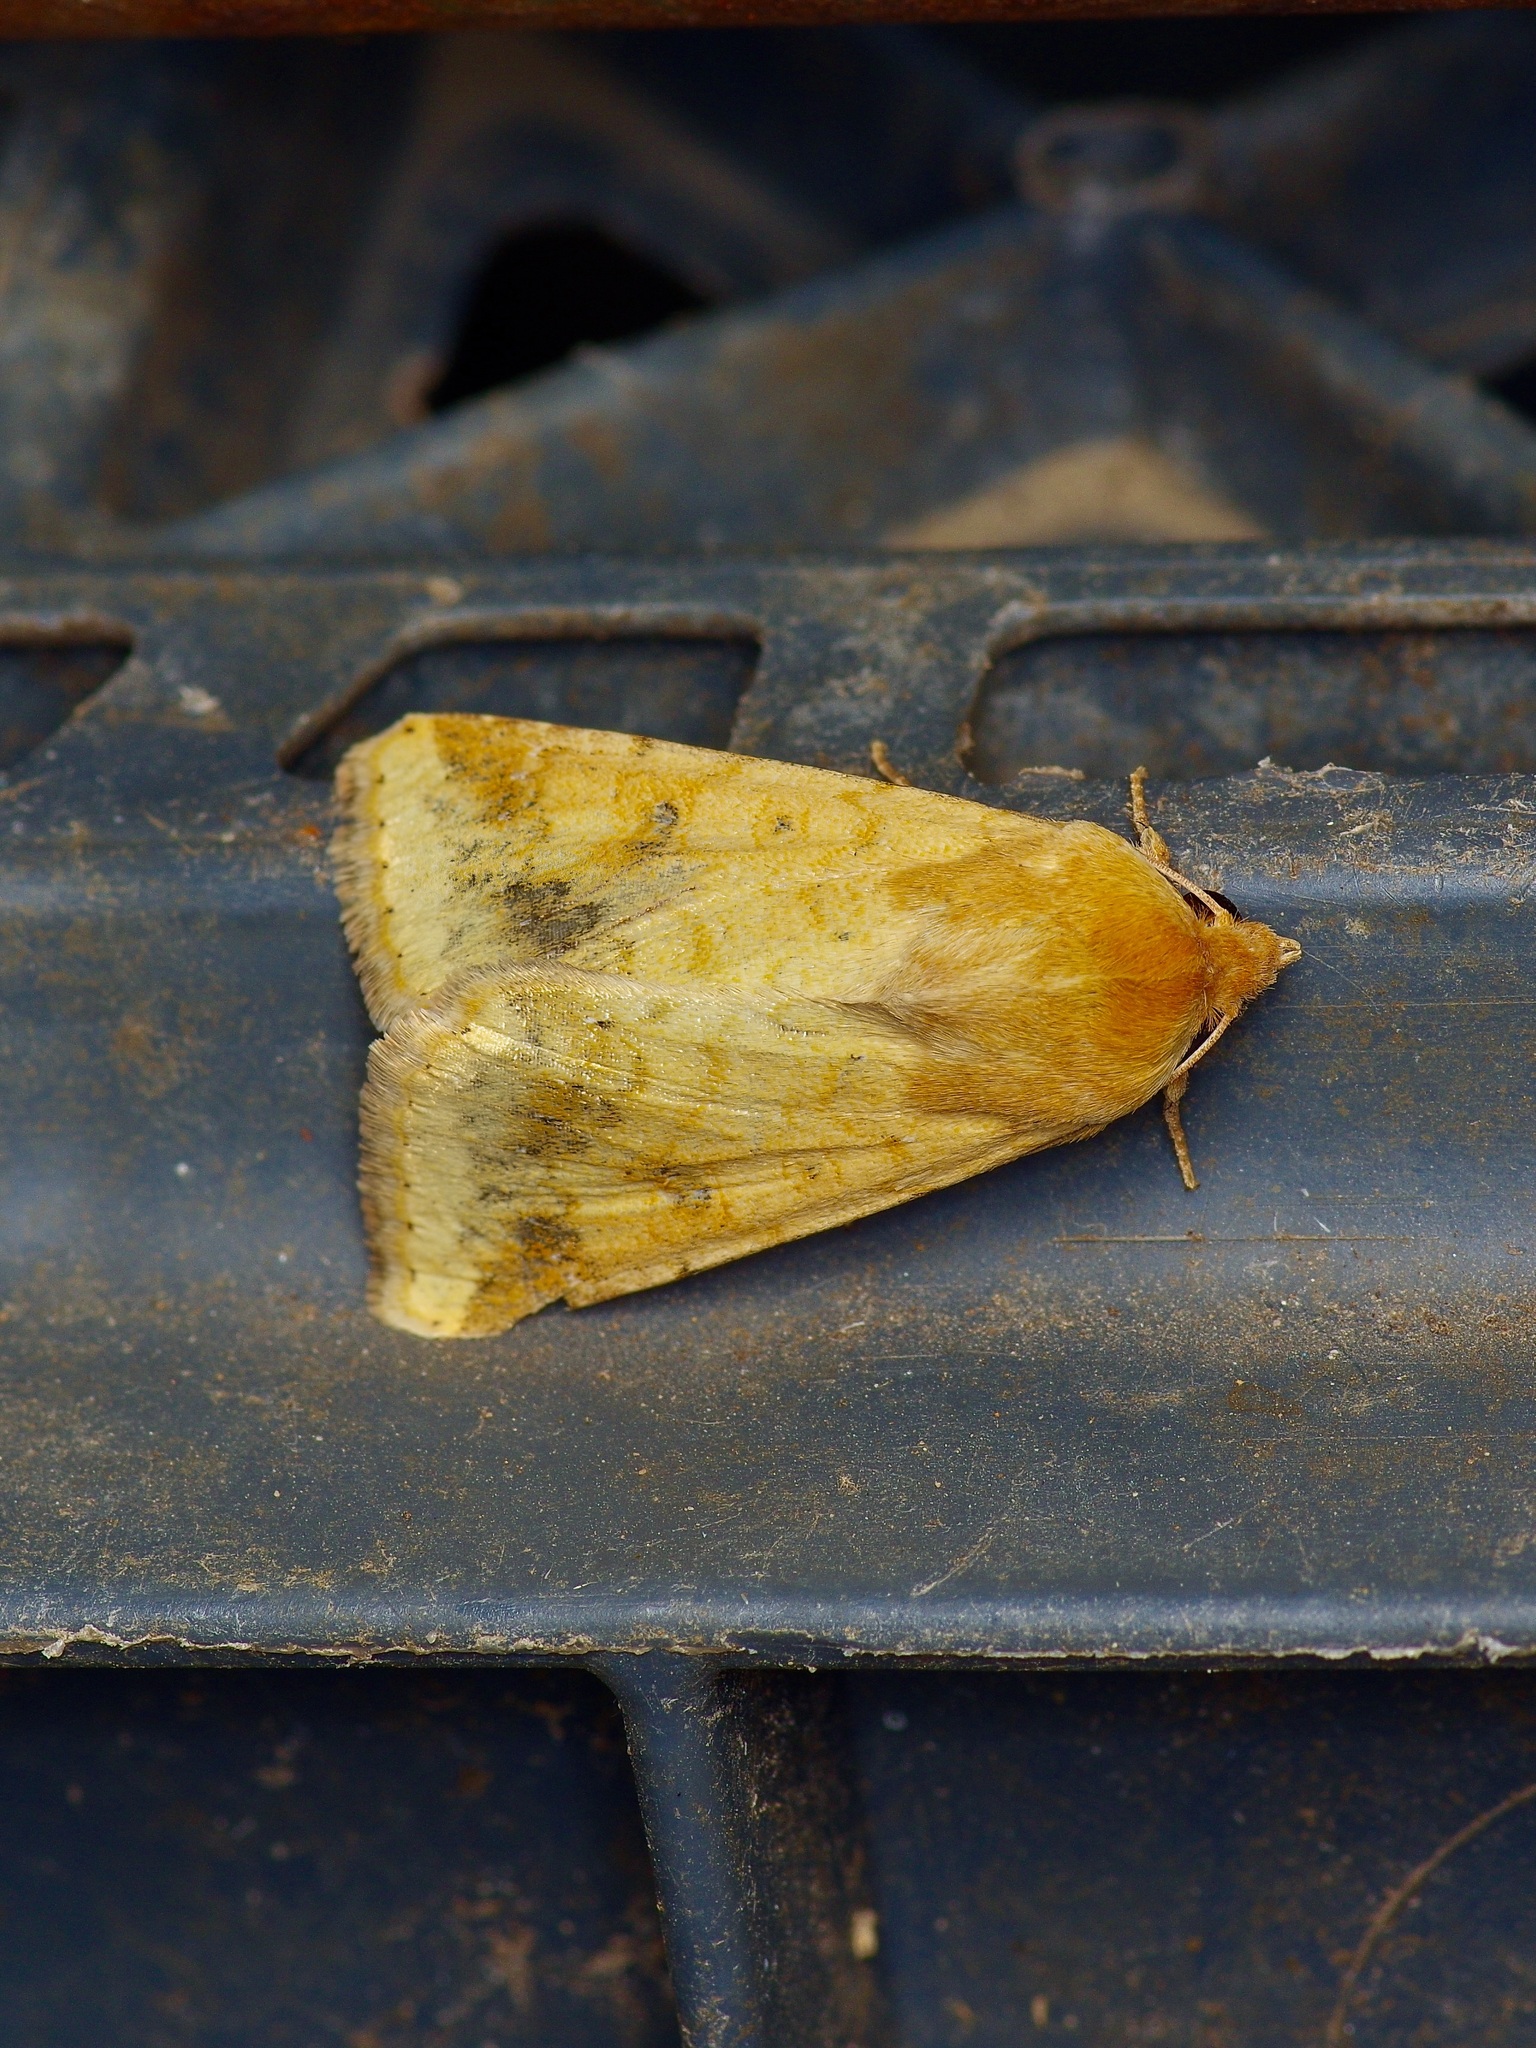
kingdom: Animalia
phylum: Arthropoda
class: Insecta
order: Lepidoptera
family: Noctuidae
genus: Helicoverpa
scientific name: Helicoverpa zea
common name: Bollworm
